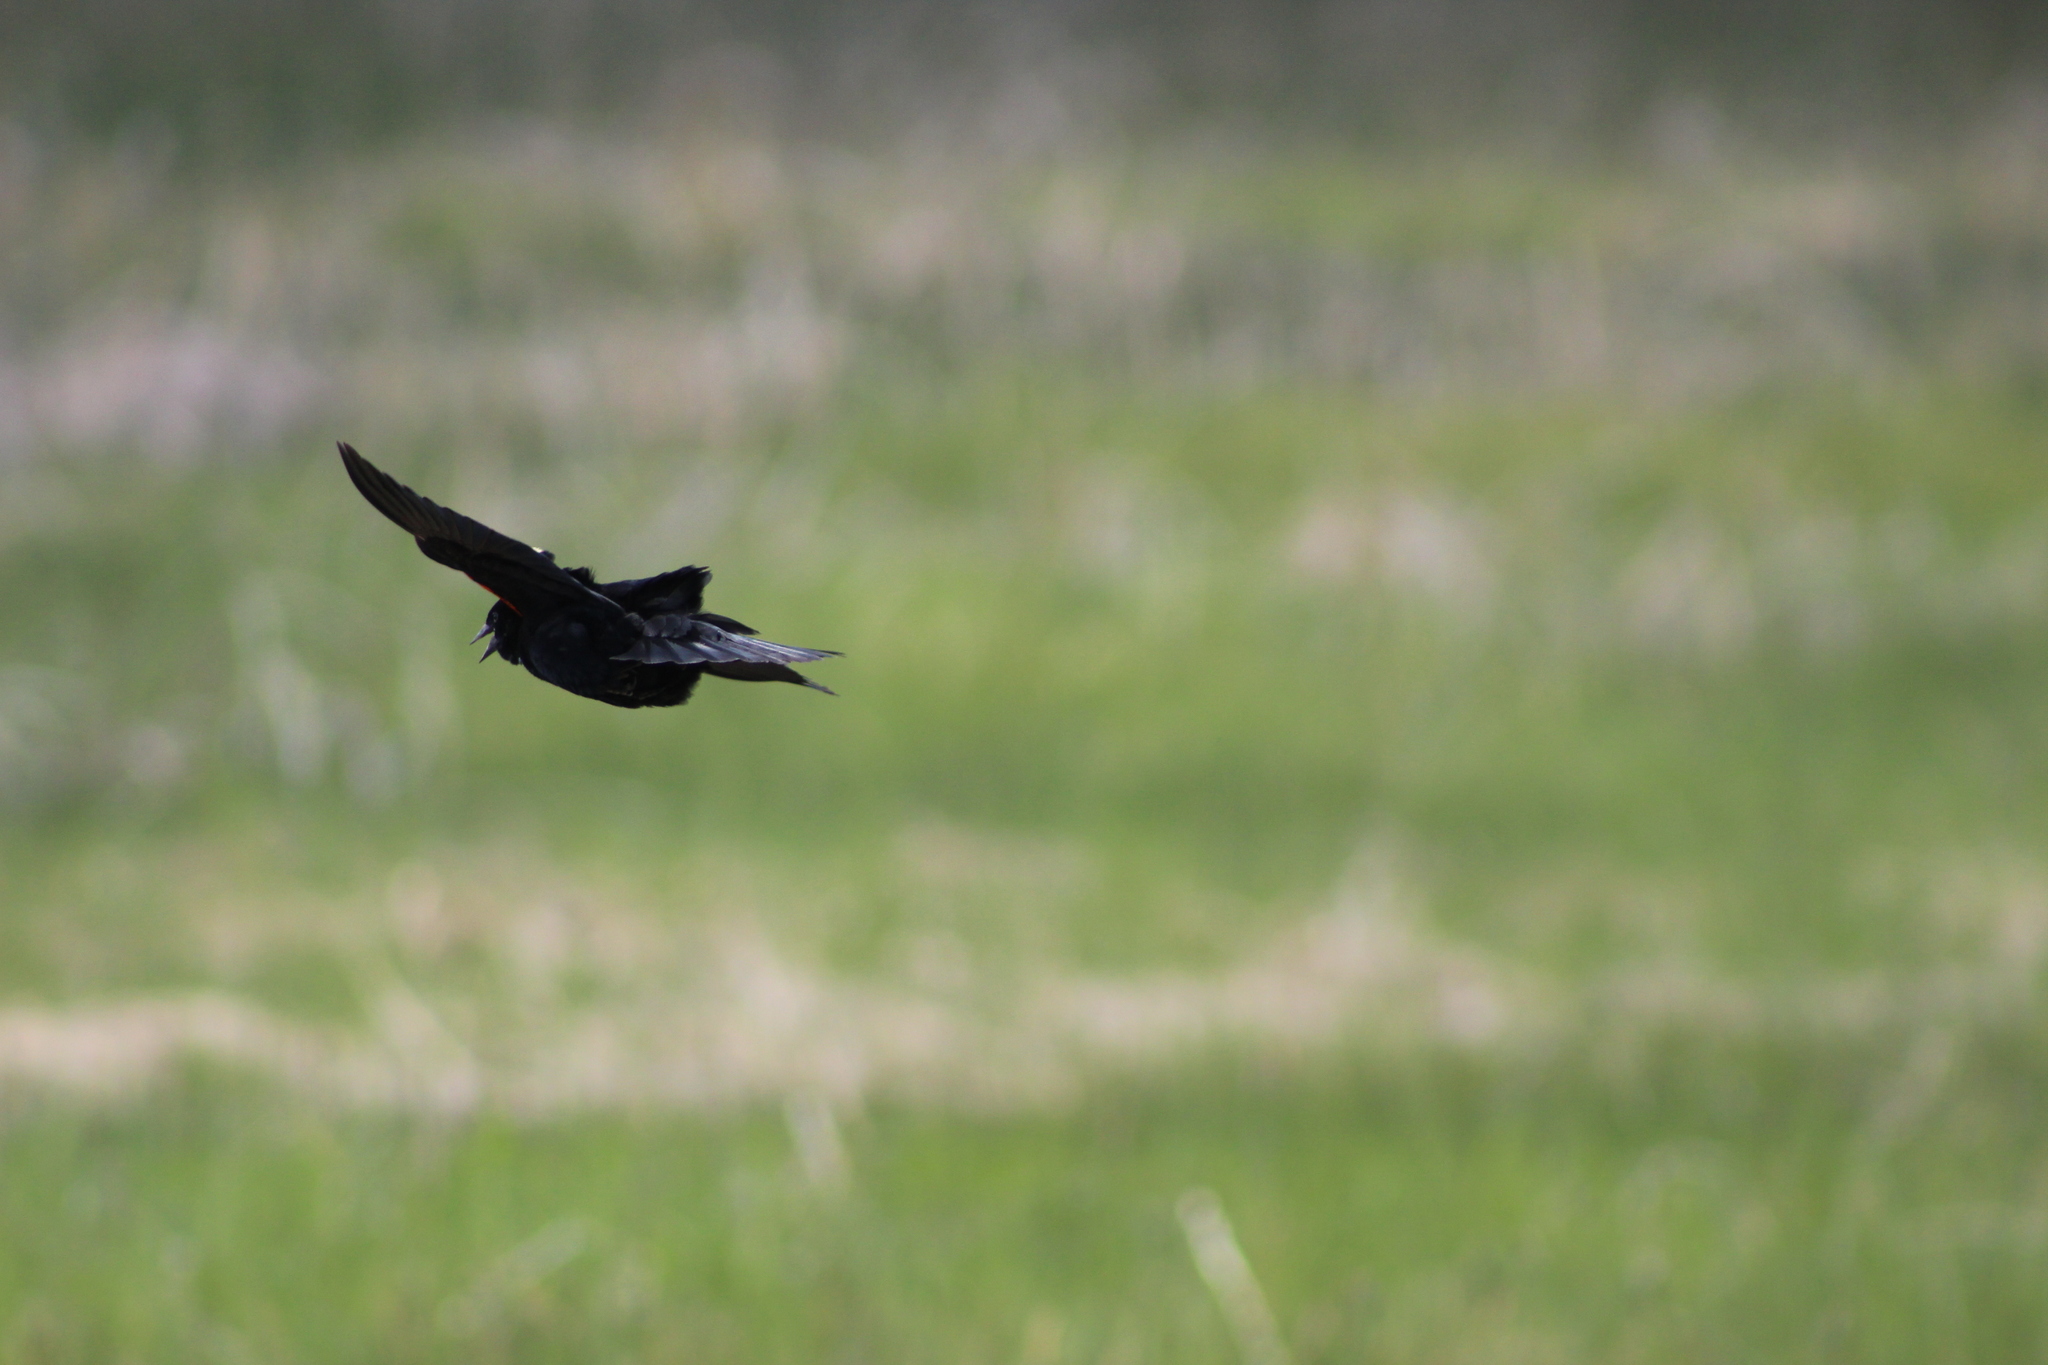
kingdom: Animalia
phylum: Chordata
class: Aves
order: Passeriformes
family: Icteridae
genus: Agelaius
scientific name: Agelaius phoeniceus
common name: Red-winged blackbird
